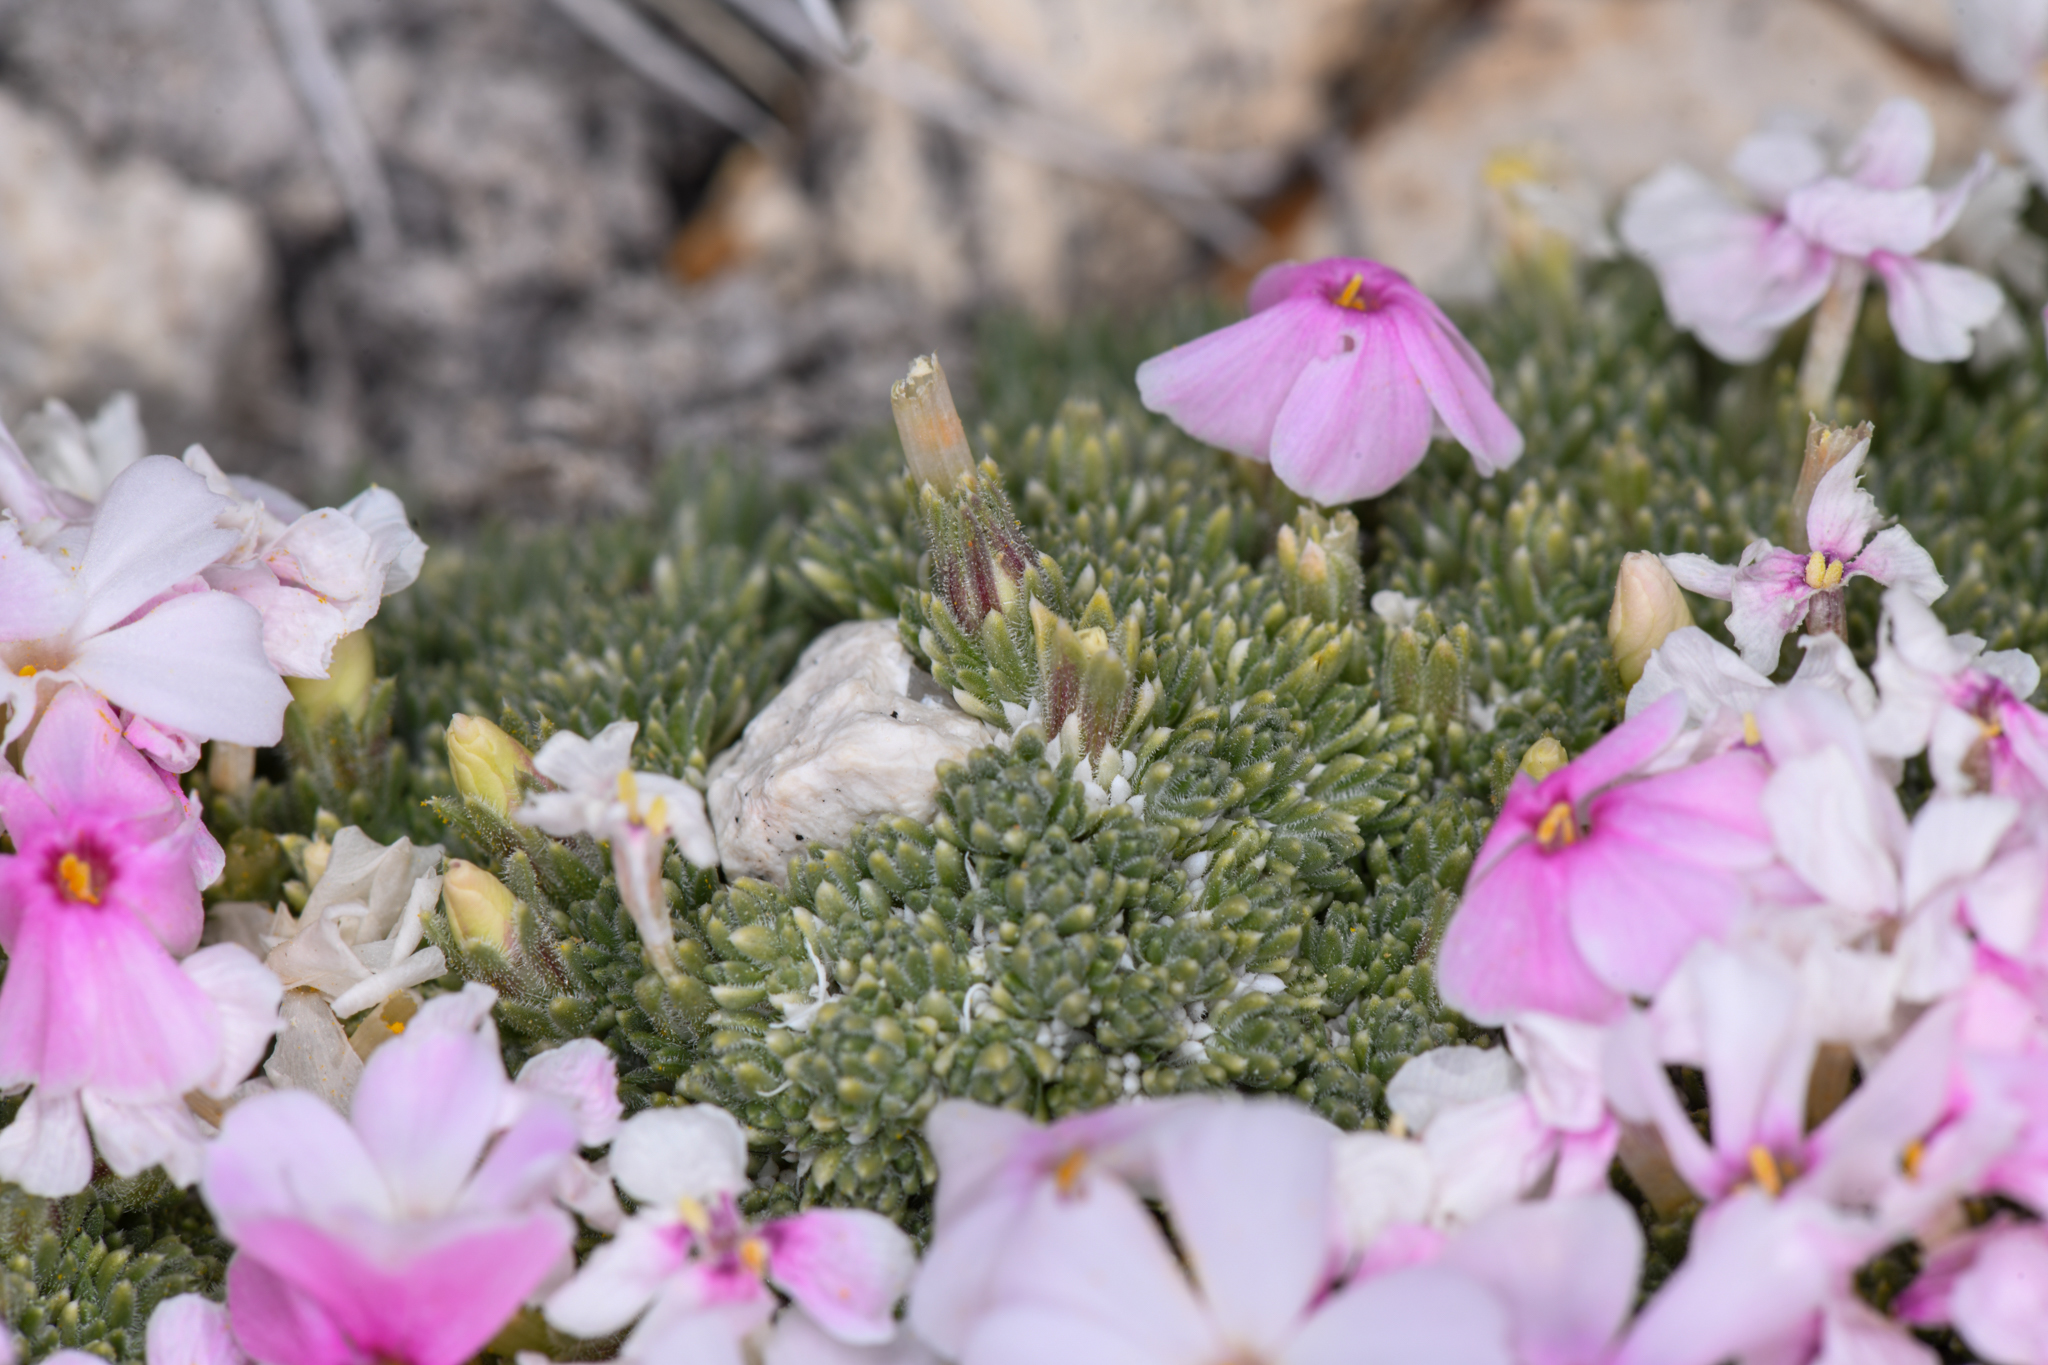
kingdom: Plantae
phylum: Tracheophyta
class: Magnoliopsida
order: Ericales
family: Polemoniaceae
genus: Phlox
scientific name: Phlox condensata
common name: Compact phlox
